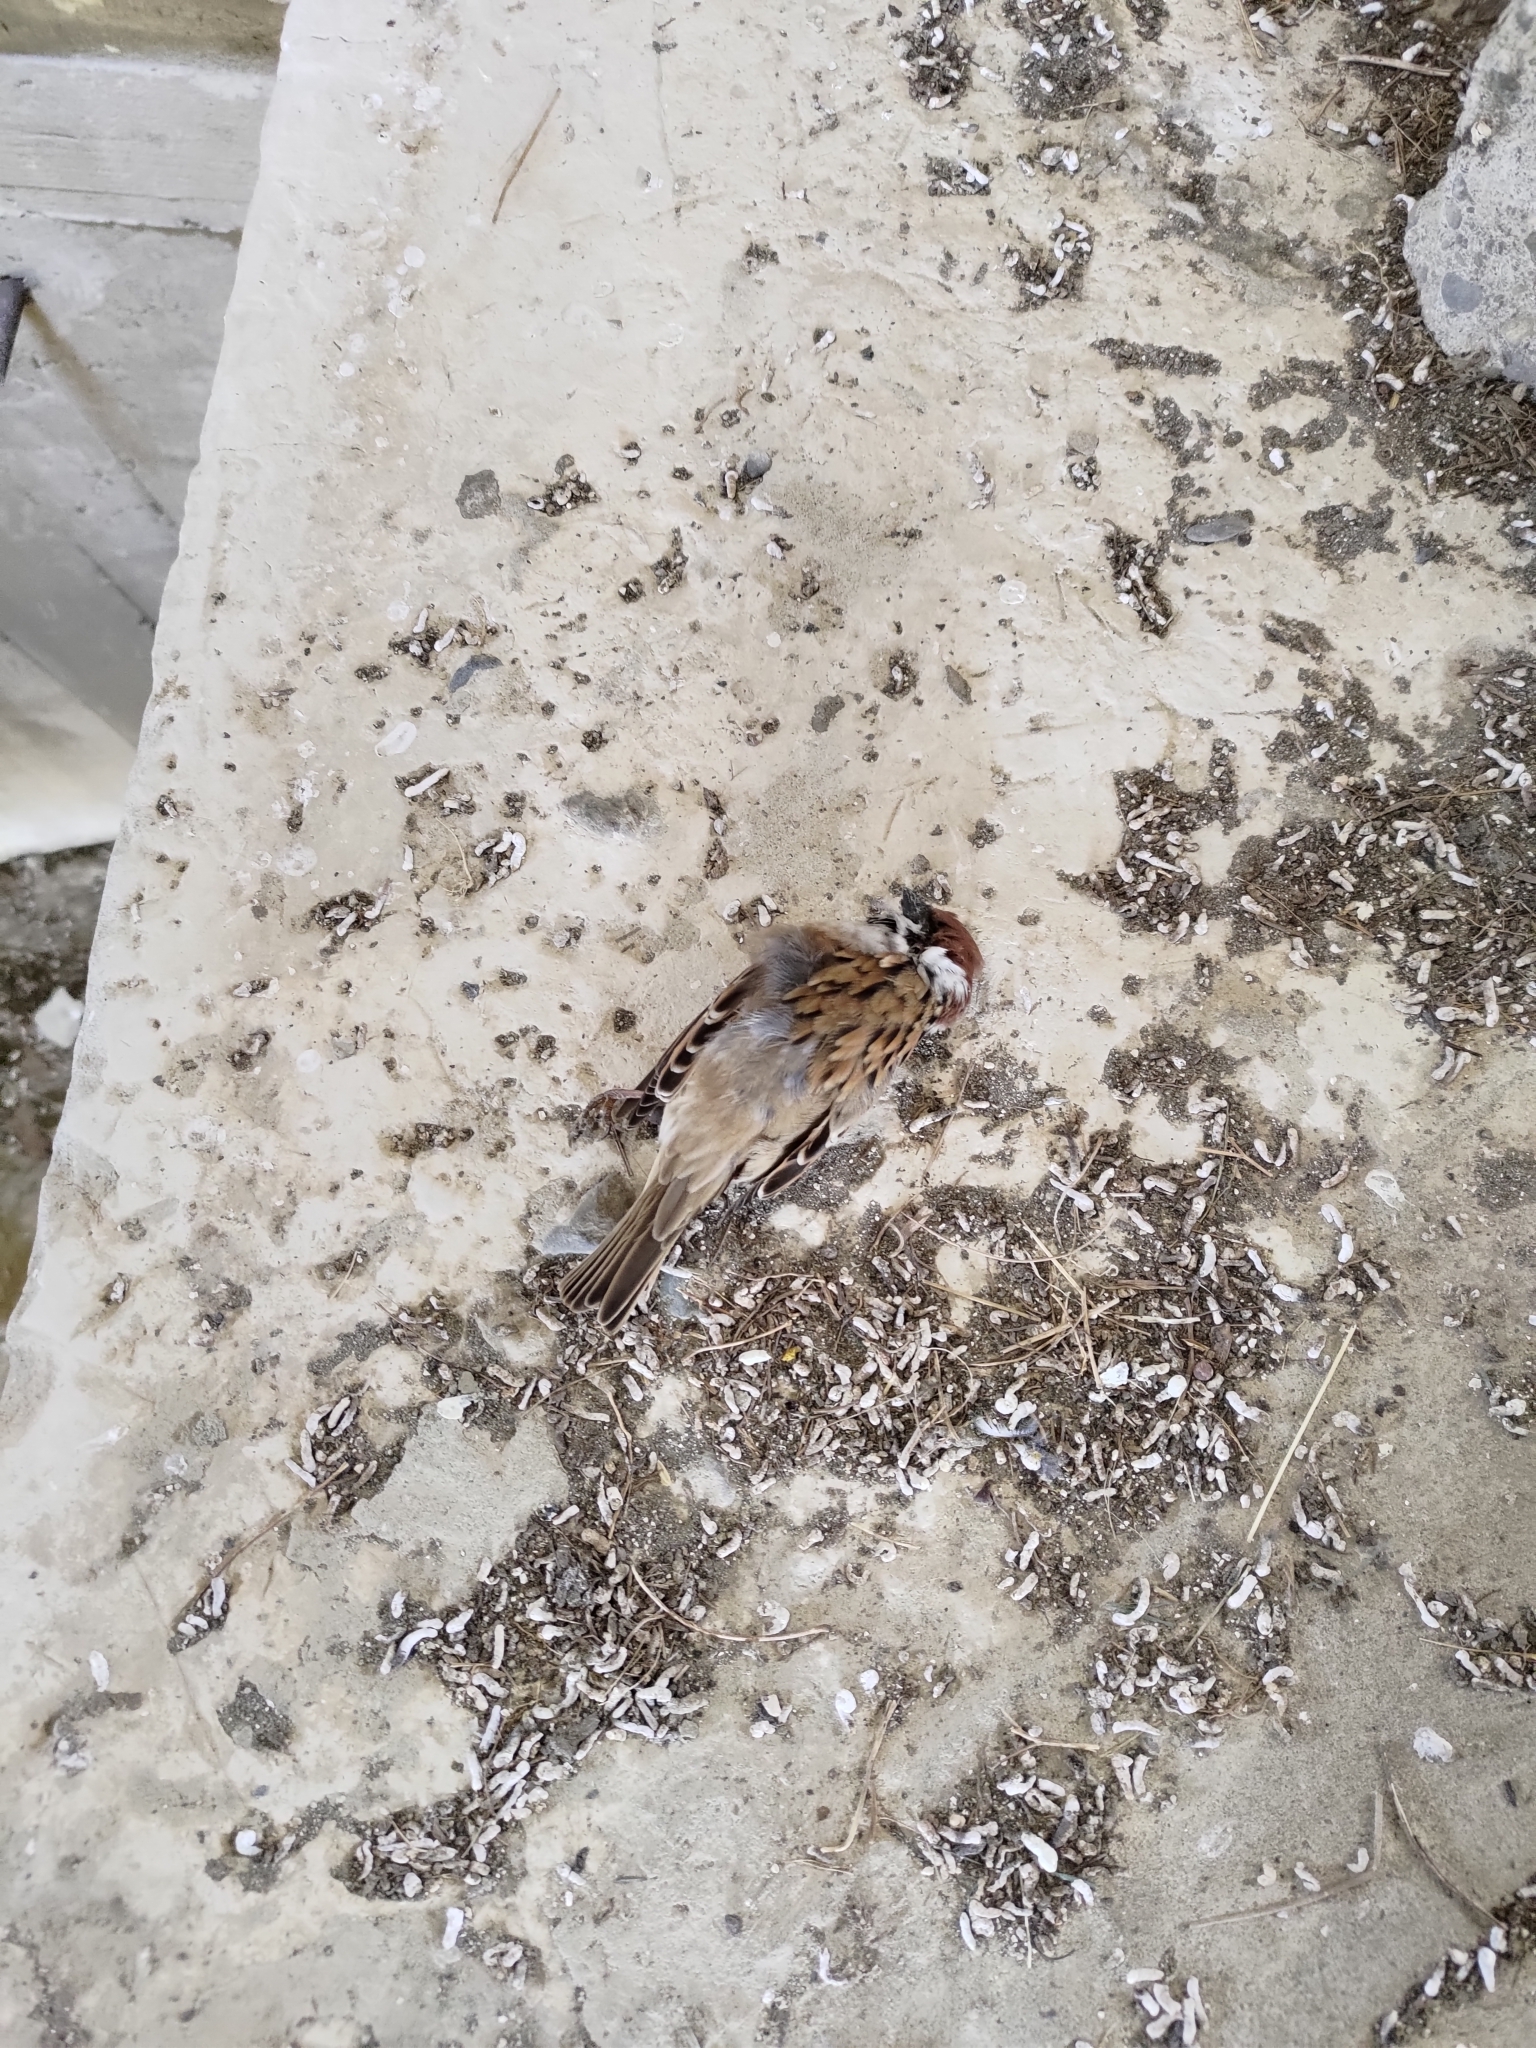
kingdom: Animalia
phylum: Chordata
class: Aves
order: Passeriformes
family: Passeridae
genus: Passer
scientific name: Passer montanus
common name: Eurasian tree sparrow
